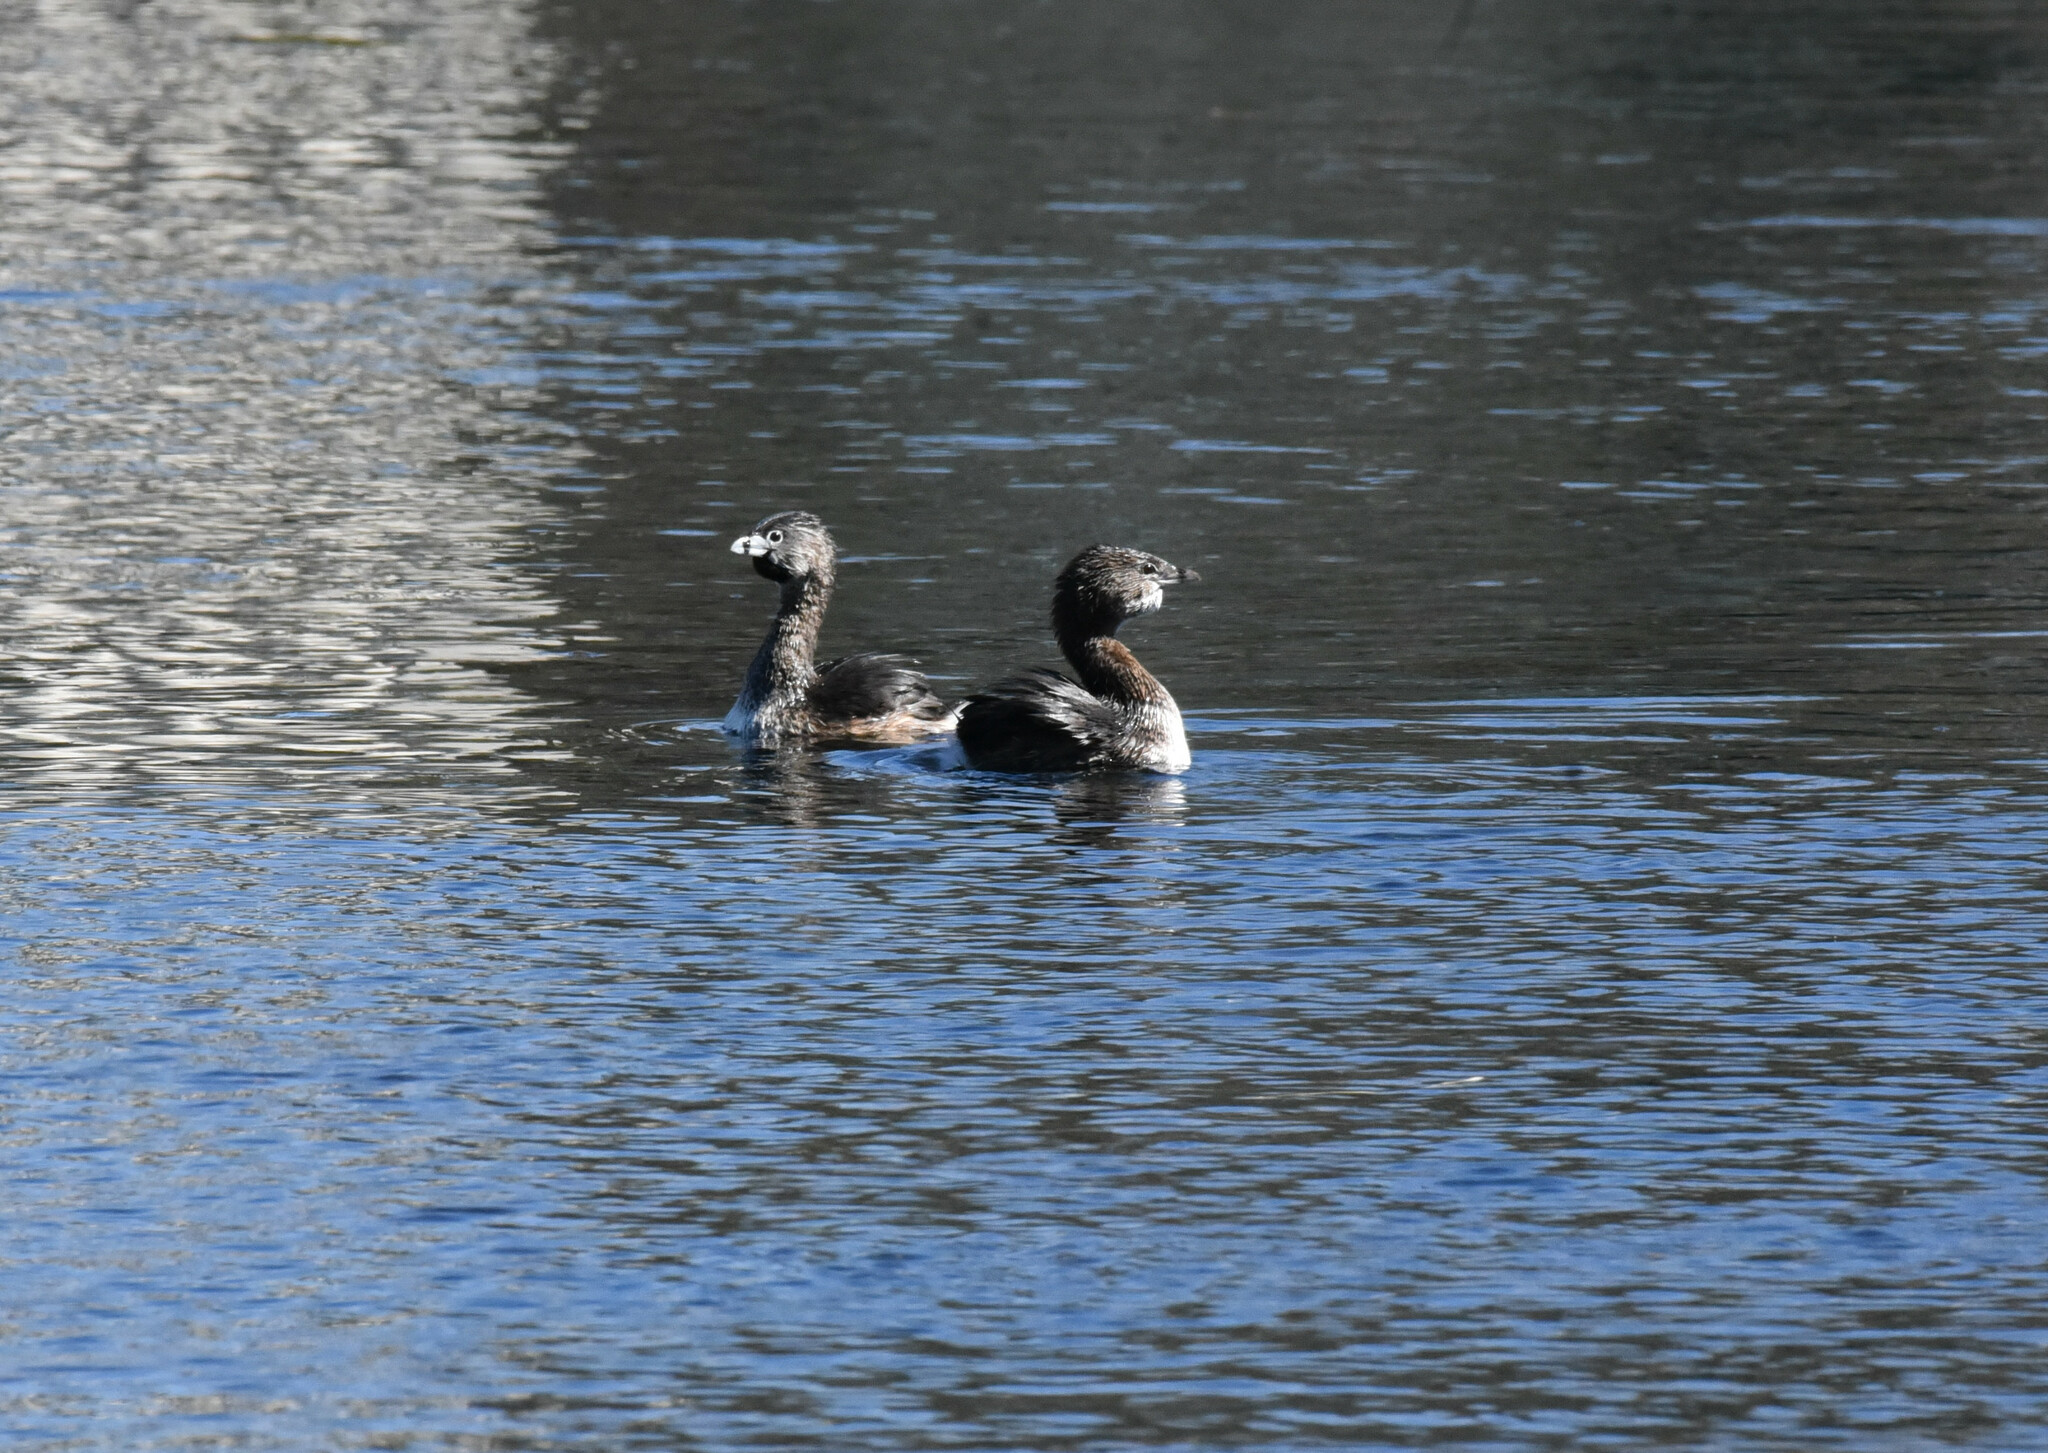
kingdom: Animalia
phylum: Chordata
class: Aves
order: Podicipediformes
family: Podicipedidae
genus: Podilymbus
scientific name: Podilymbus podiceps
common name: Pied-billed grebe
